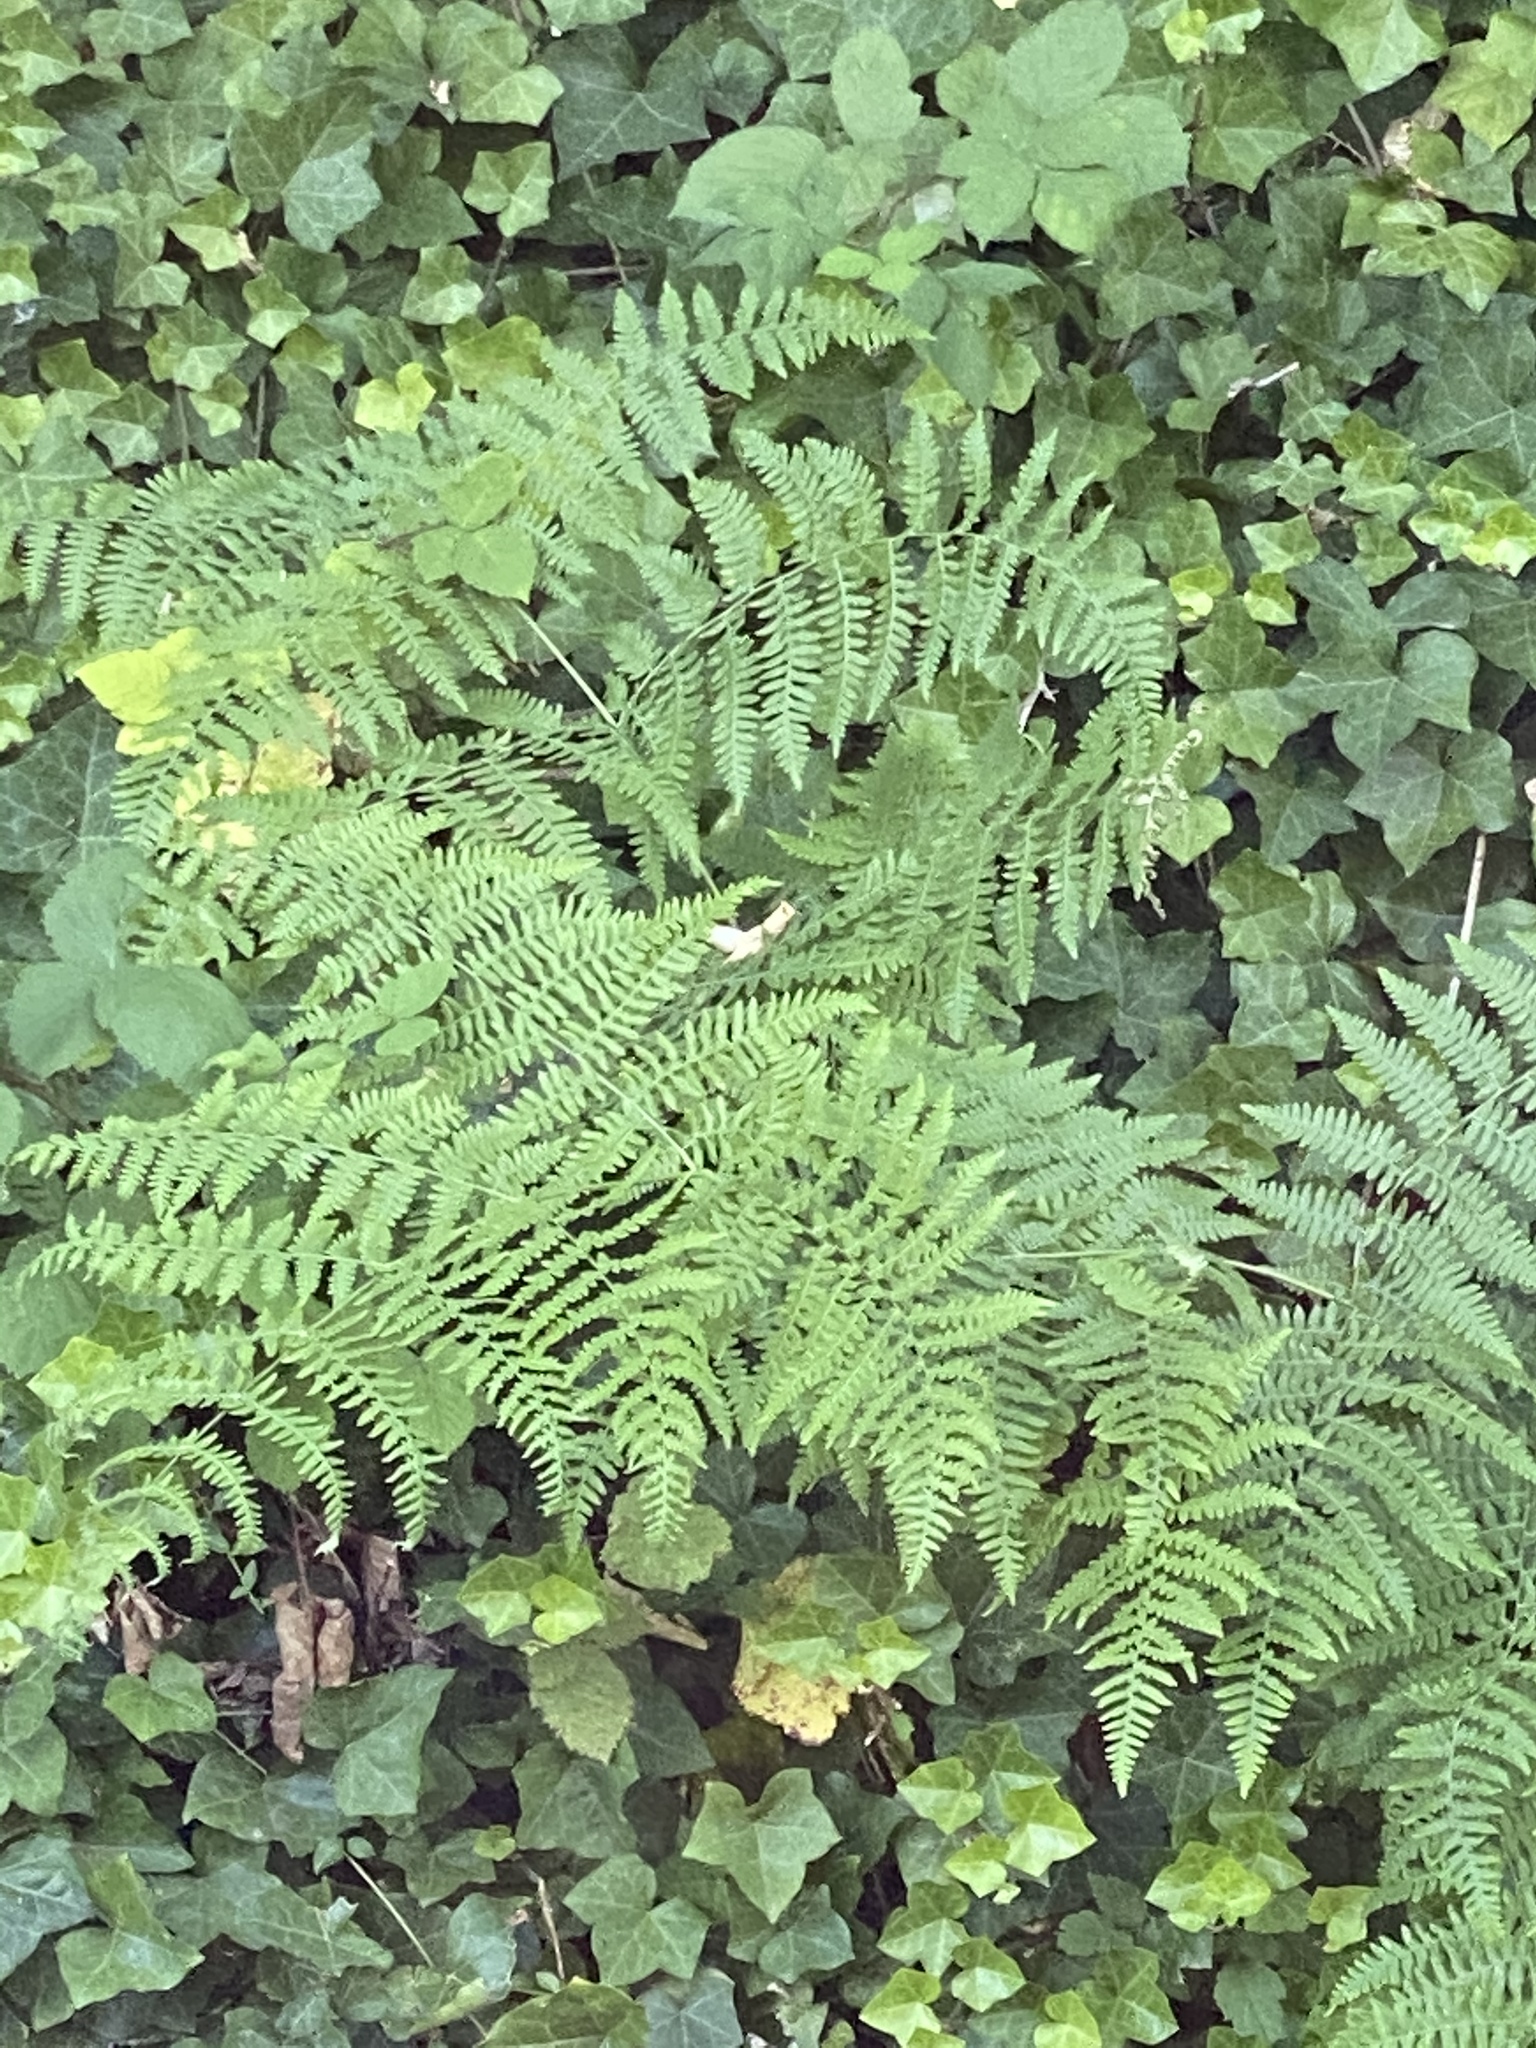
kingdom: Plantae
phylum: Tracheophyta
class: Polypodiopsida
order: Polypodiales
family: Dennstaedtiaceae
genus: Pteridium
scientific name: Pteridium aquilinum
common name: Bracken
